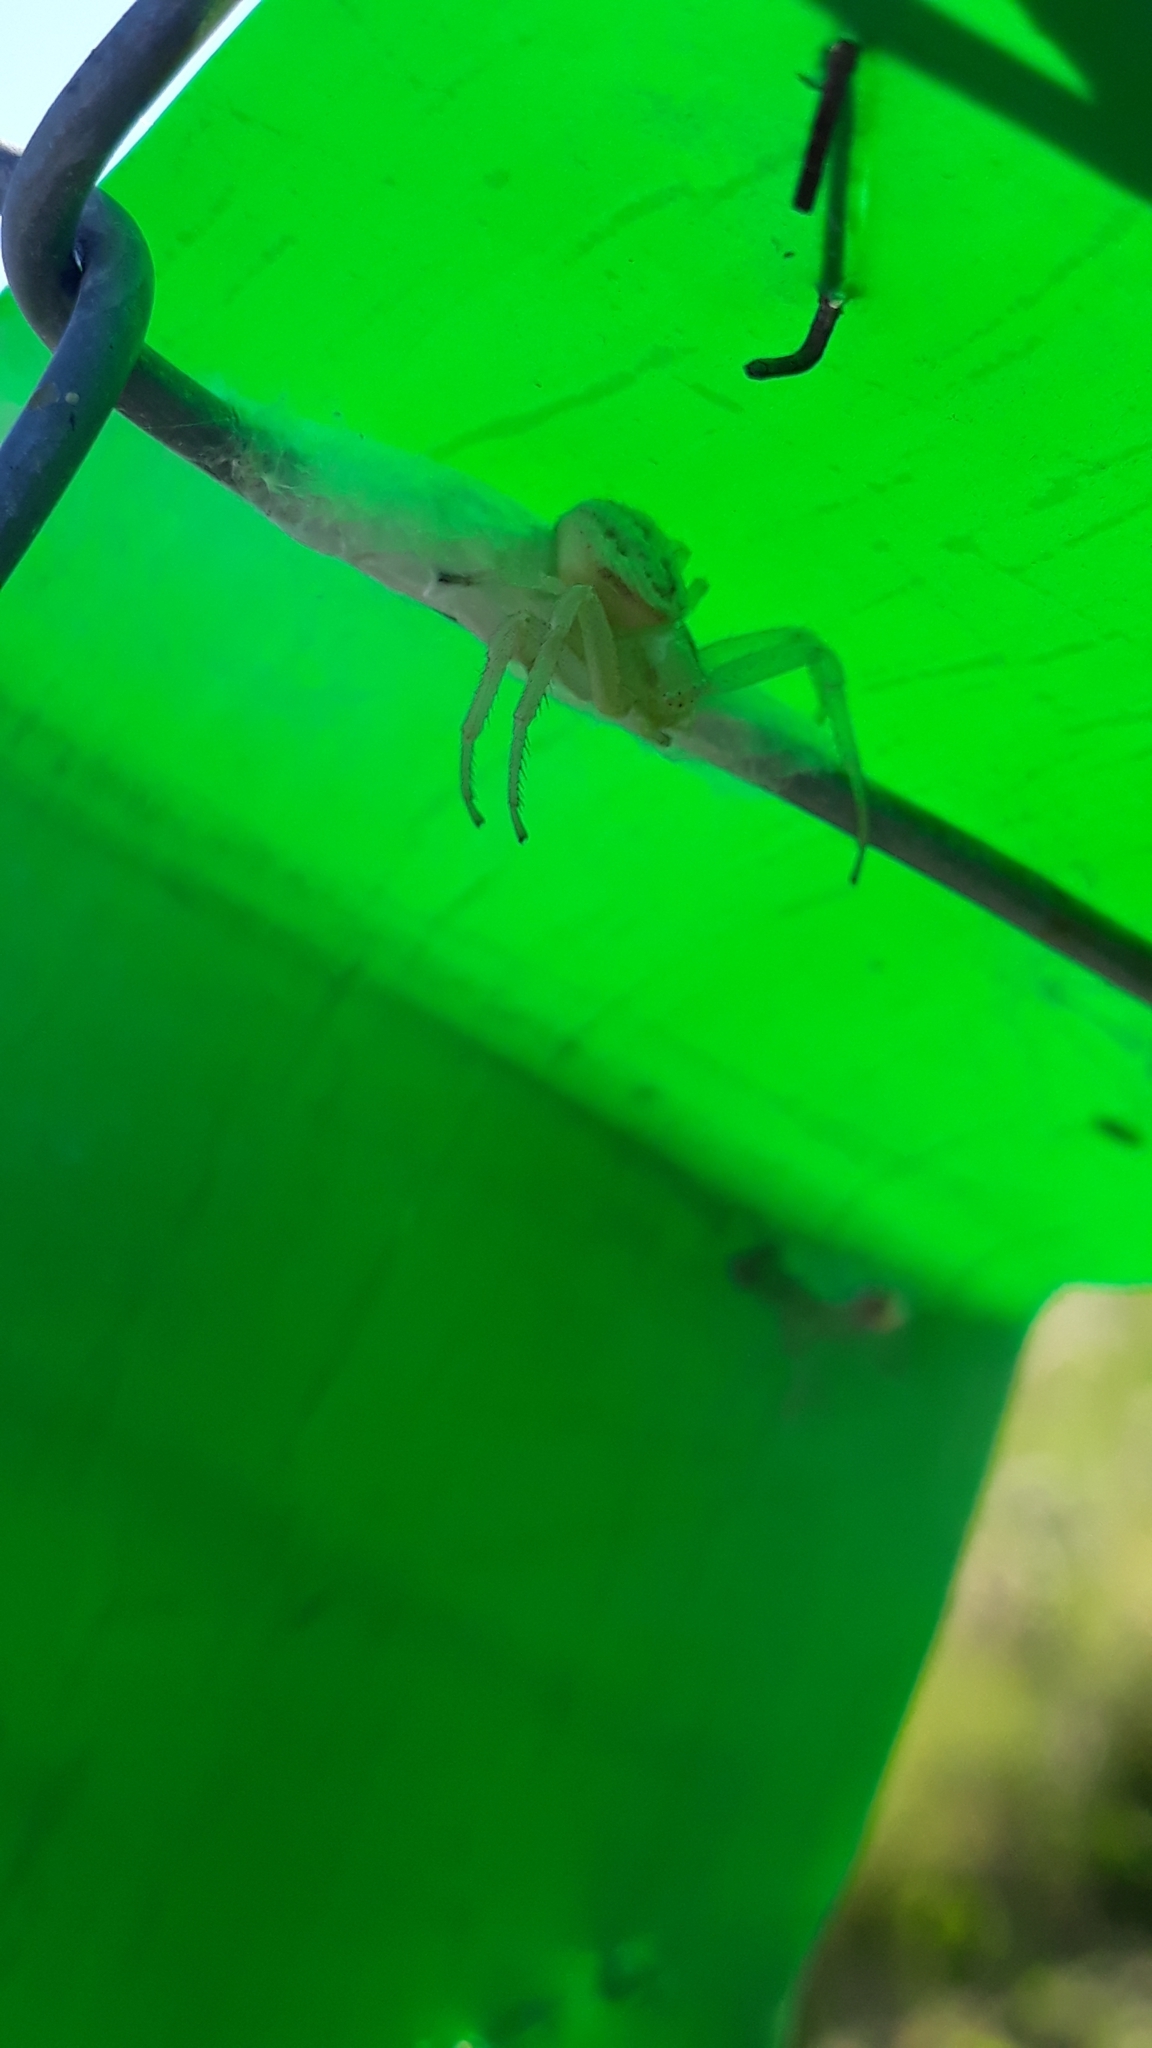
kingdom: Animalia
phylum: Arthropoda
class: Arachnida
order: Araneae
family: Thomisidae
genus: Misumenops
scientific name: Misumenops
